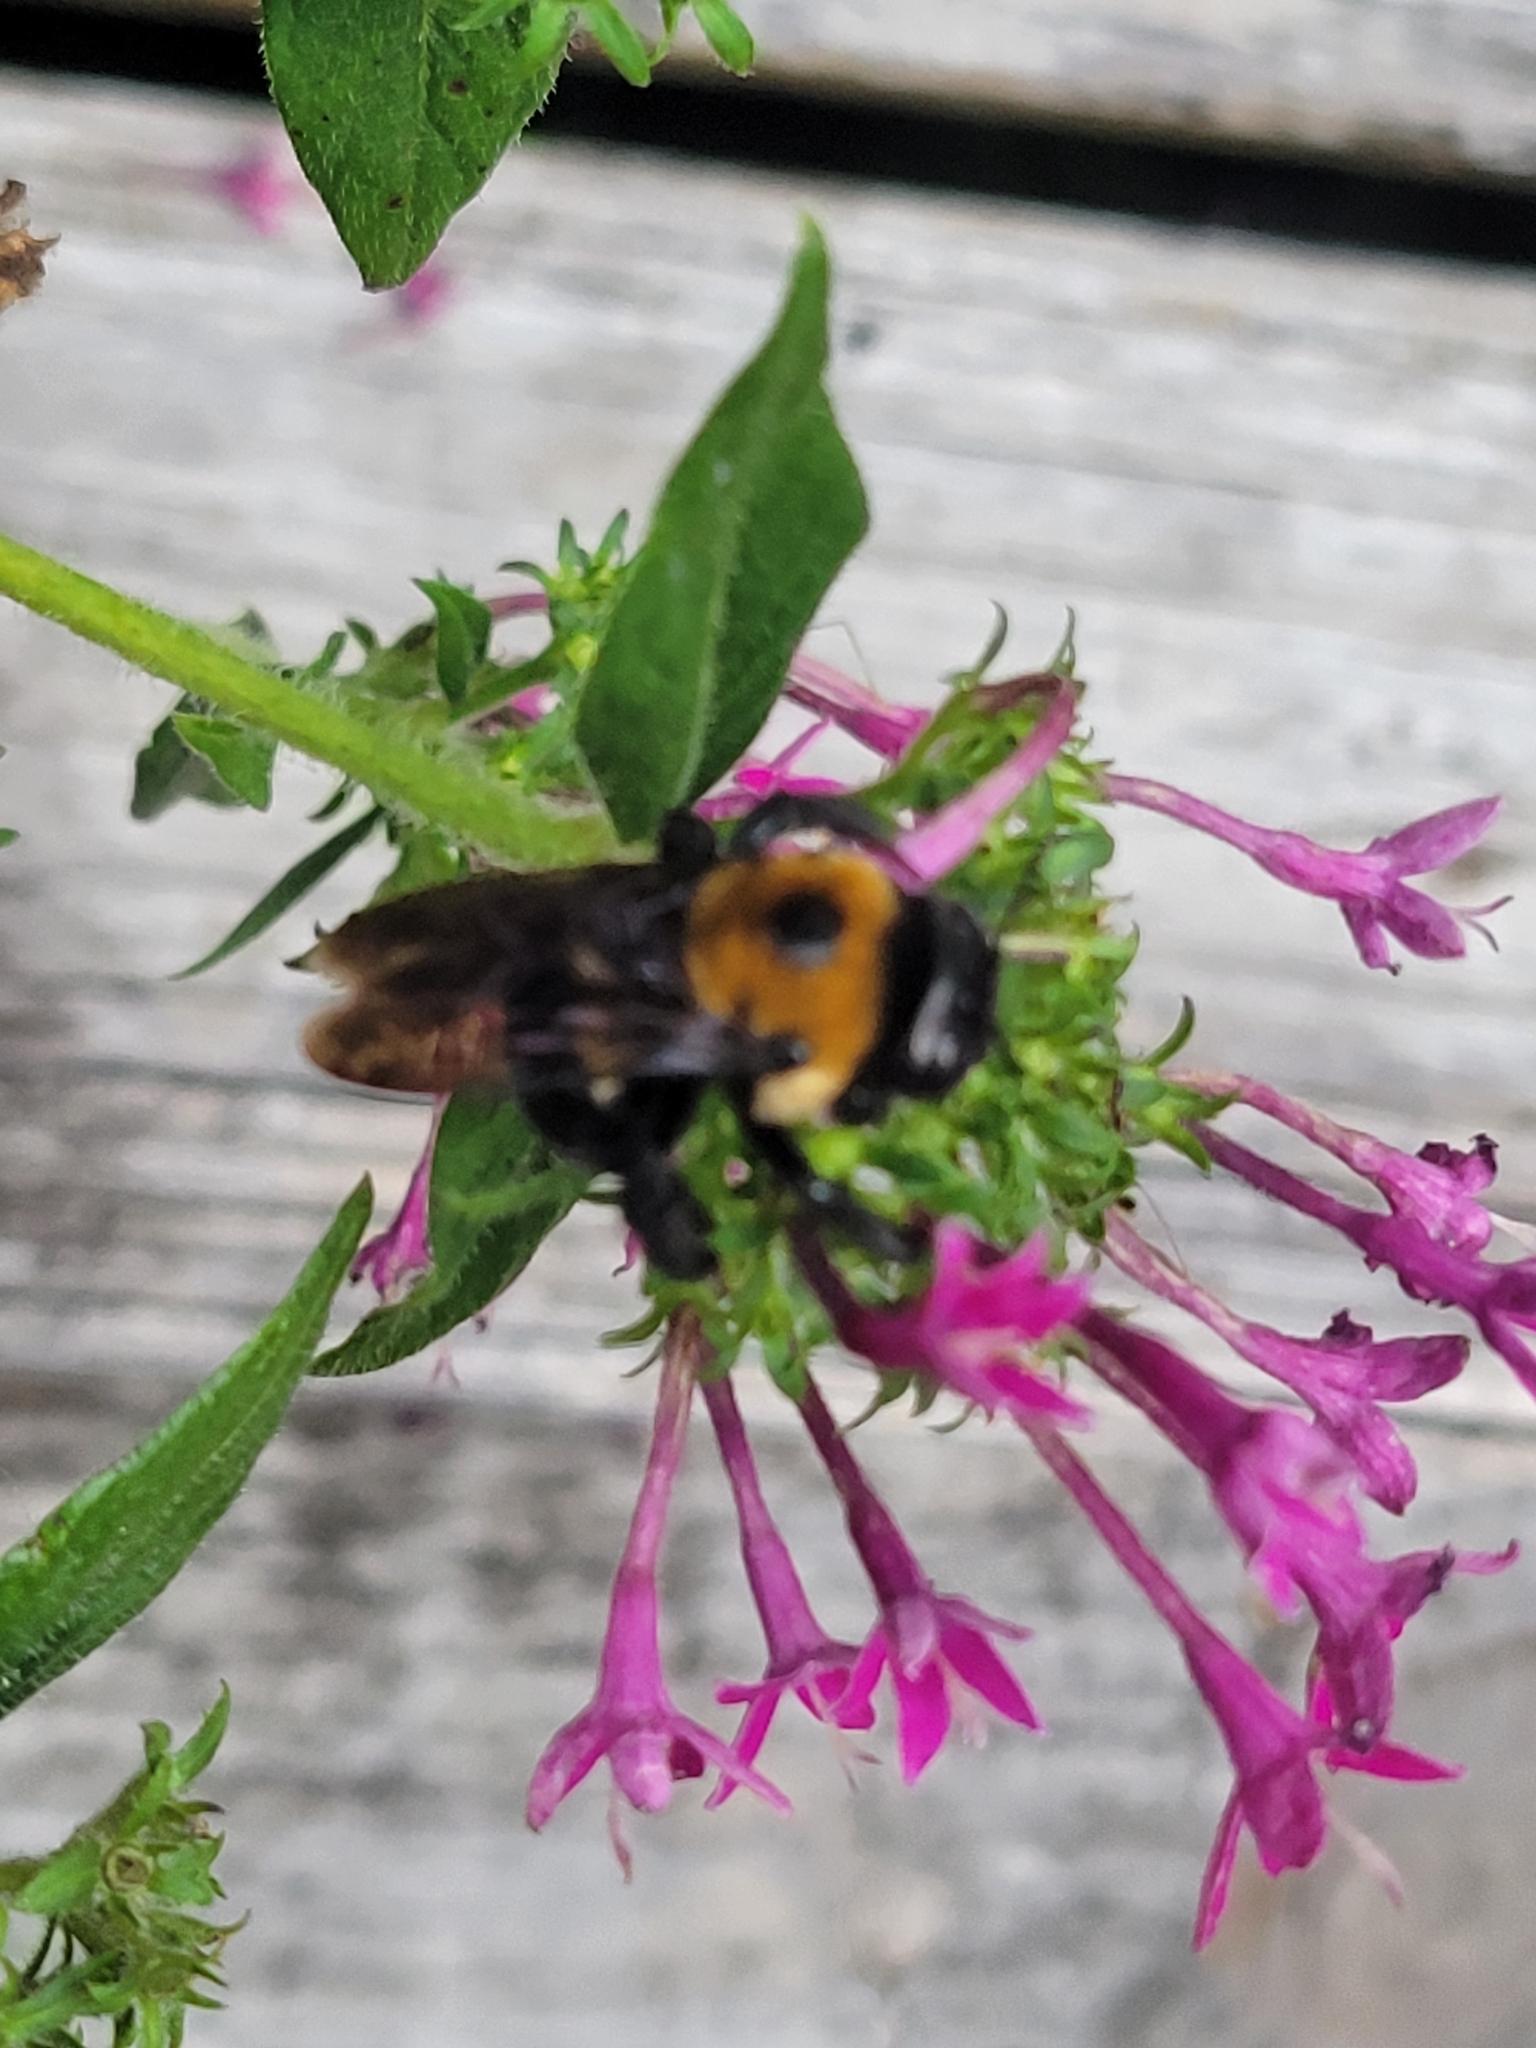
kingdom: Animalia
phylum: Arthropoda
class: Insecta
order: Hymenoptera
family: Apidae
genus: Xylocopa
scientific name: Xylocopa virginica
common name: Carpenter bee
